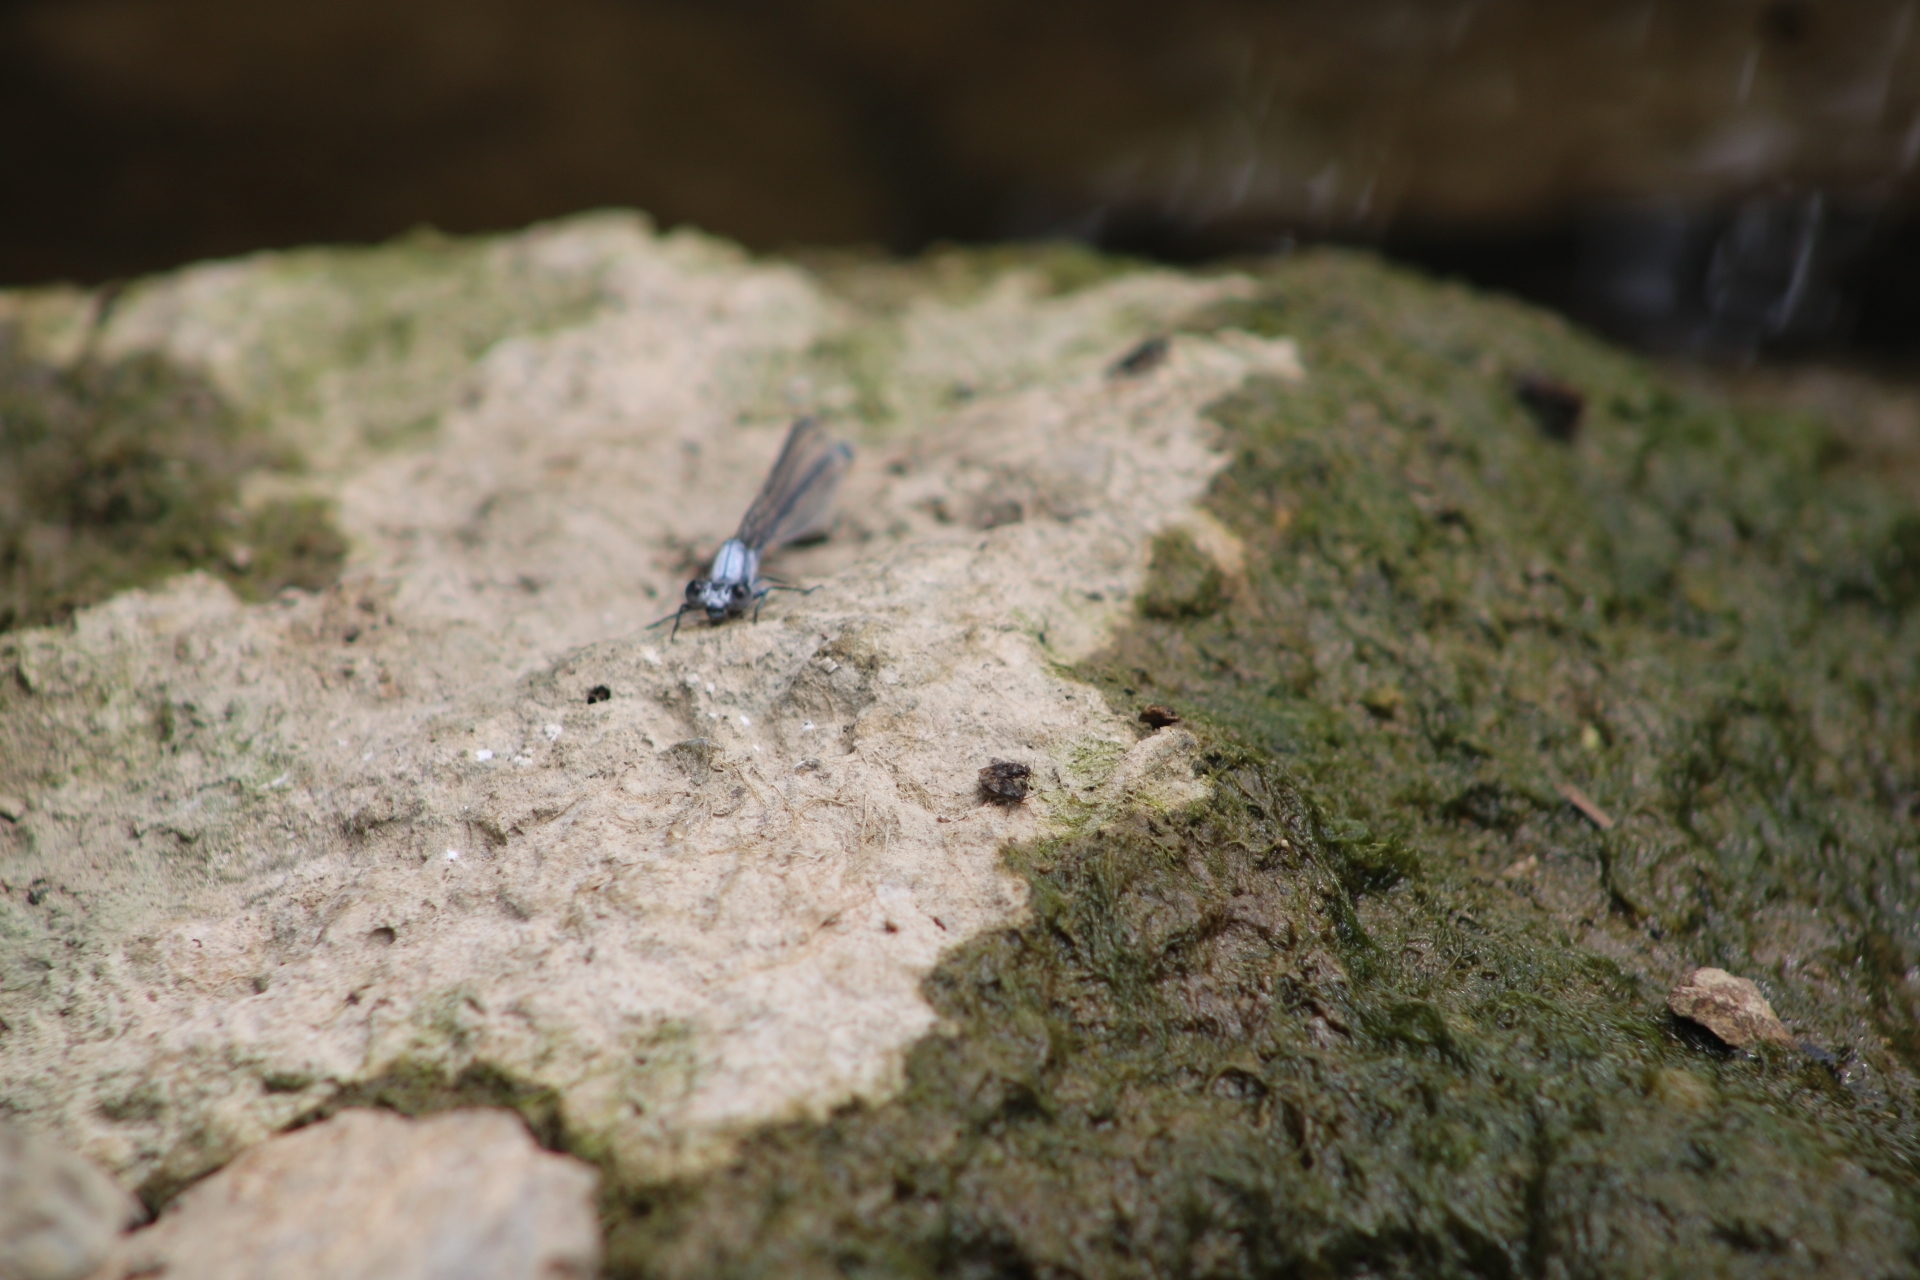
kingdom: Animalia
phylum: Arthropoda
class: Insecta
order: Odonata
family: Coenagrionidae
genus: Argia
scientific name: Argia moesta
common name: Powdered dancer
